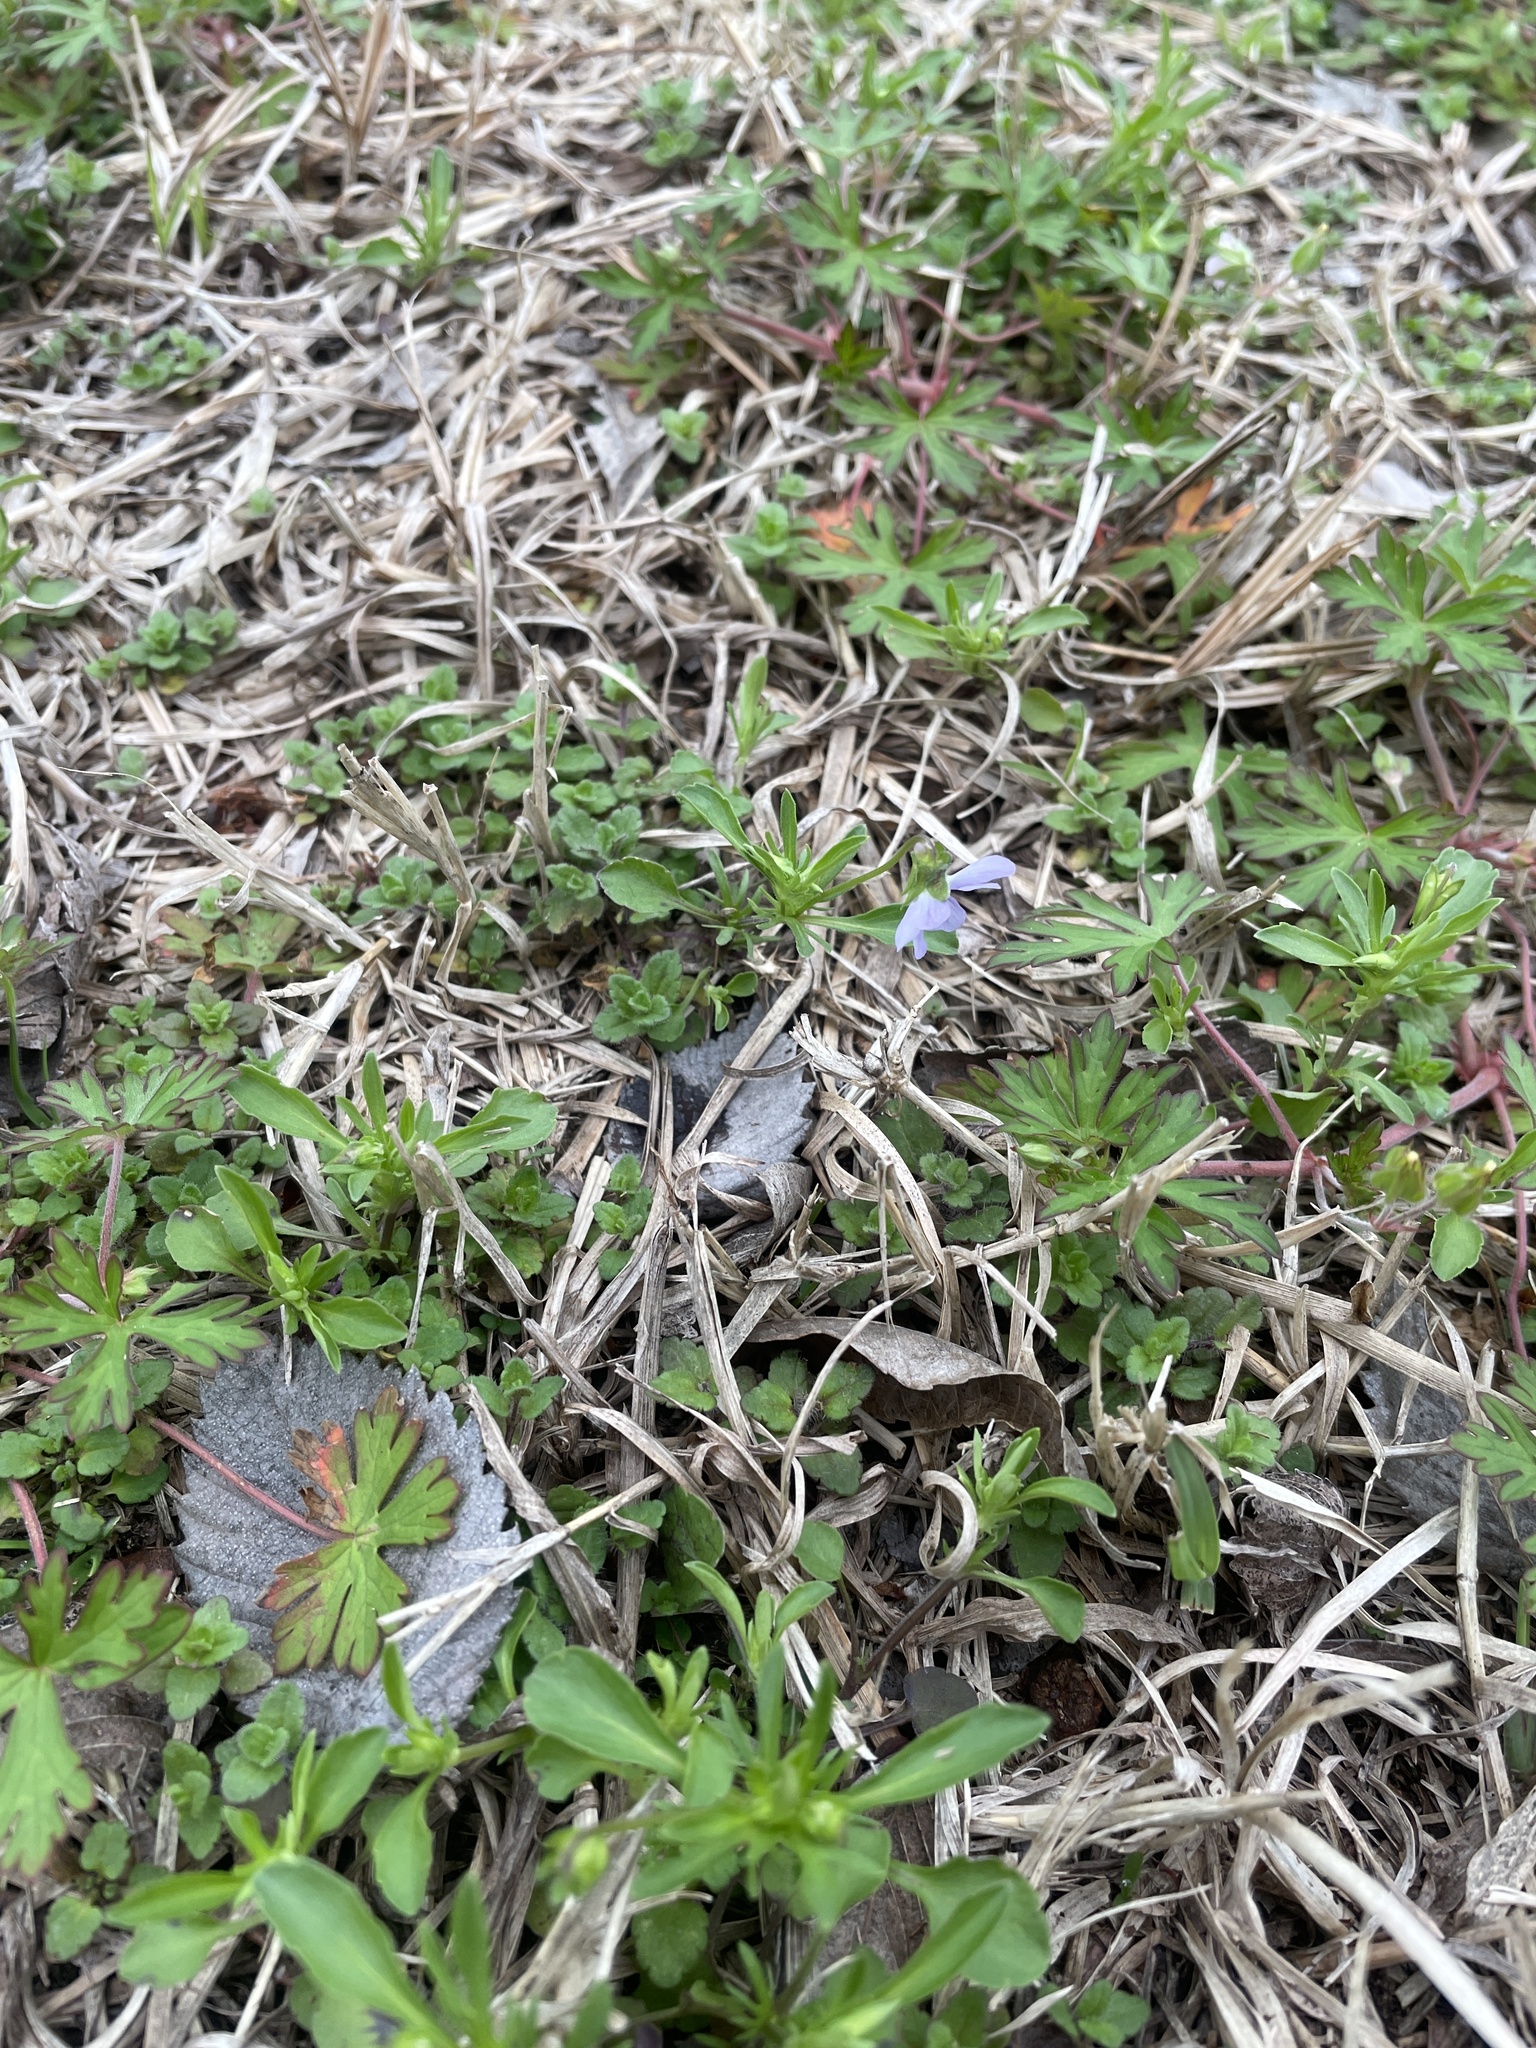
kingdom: Plantae
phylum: Tracheophyta
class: Magnoliopsida
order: Malpighiales
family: Violaceae
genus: Viola
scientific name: Viola rafinesquei
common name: American field pansy
